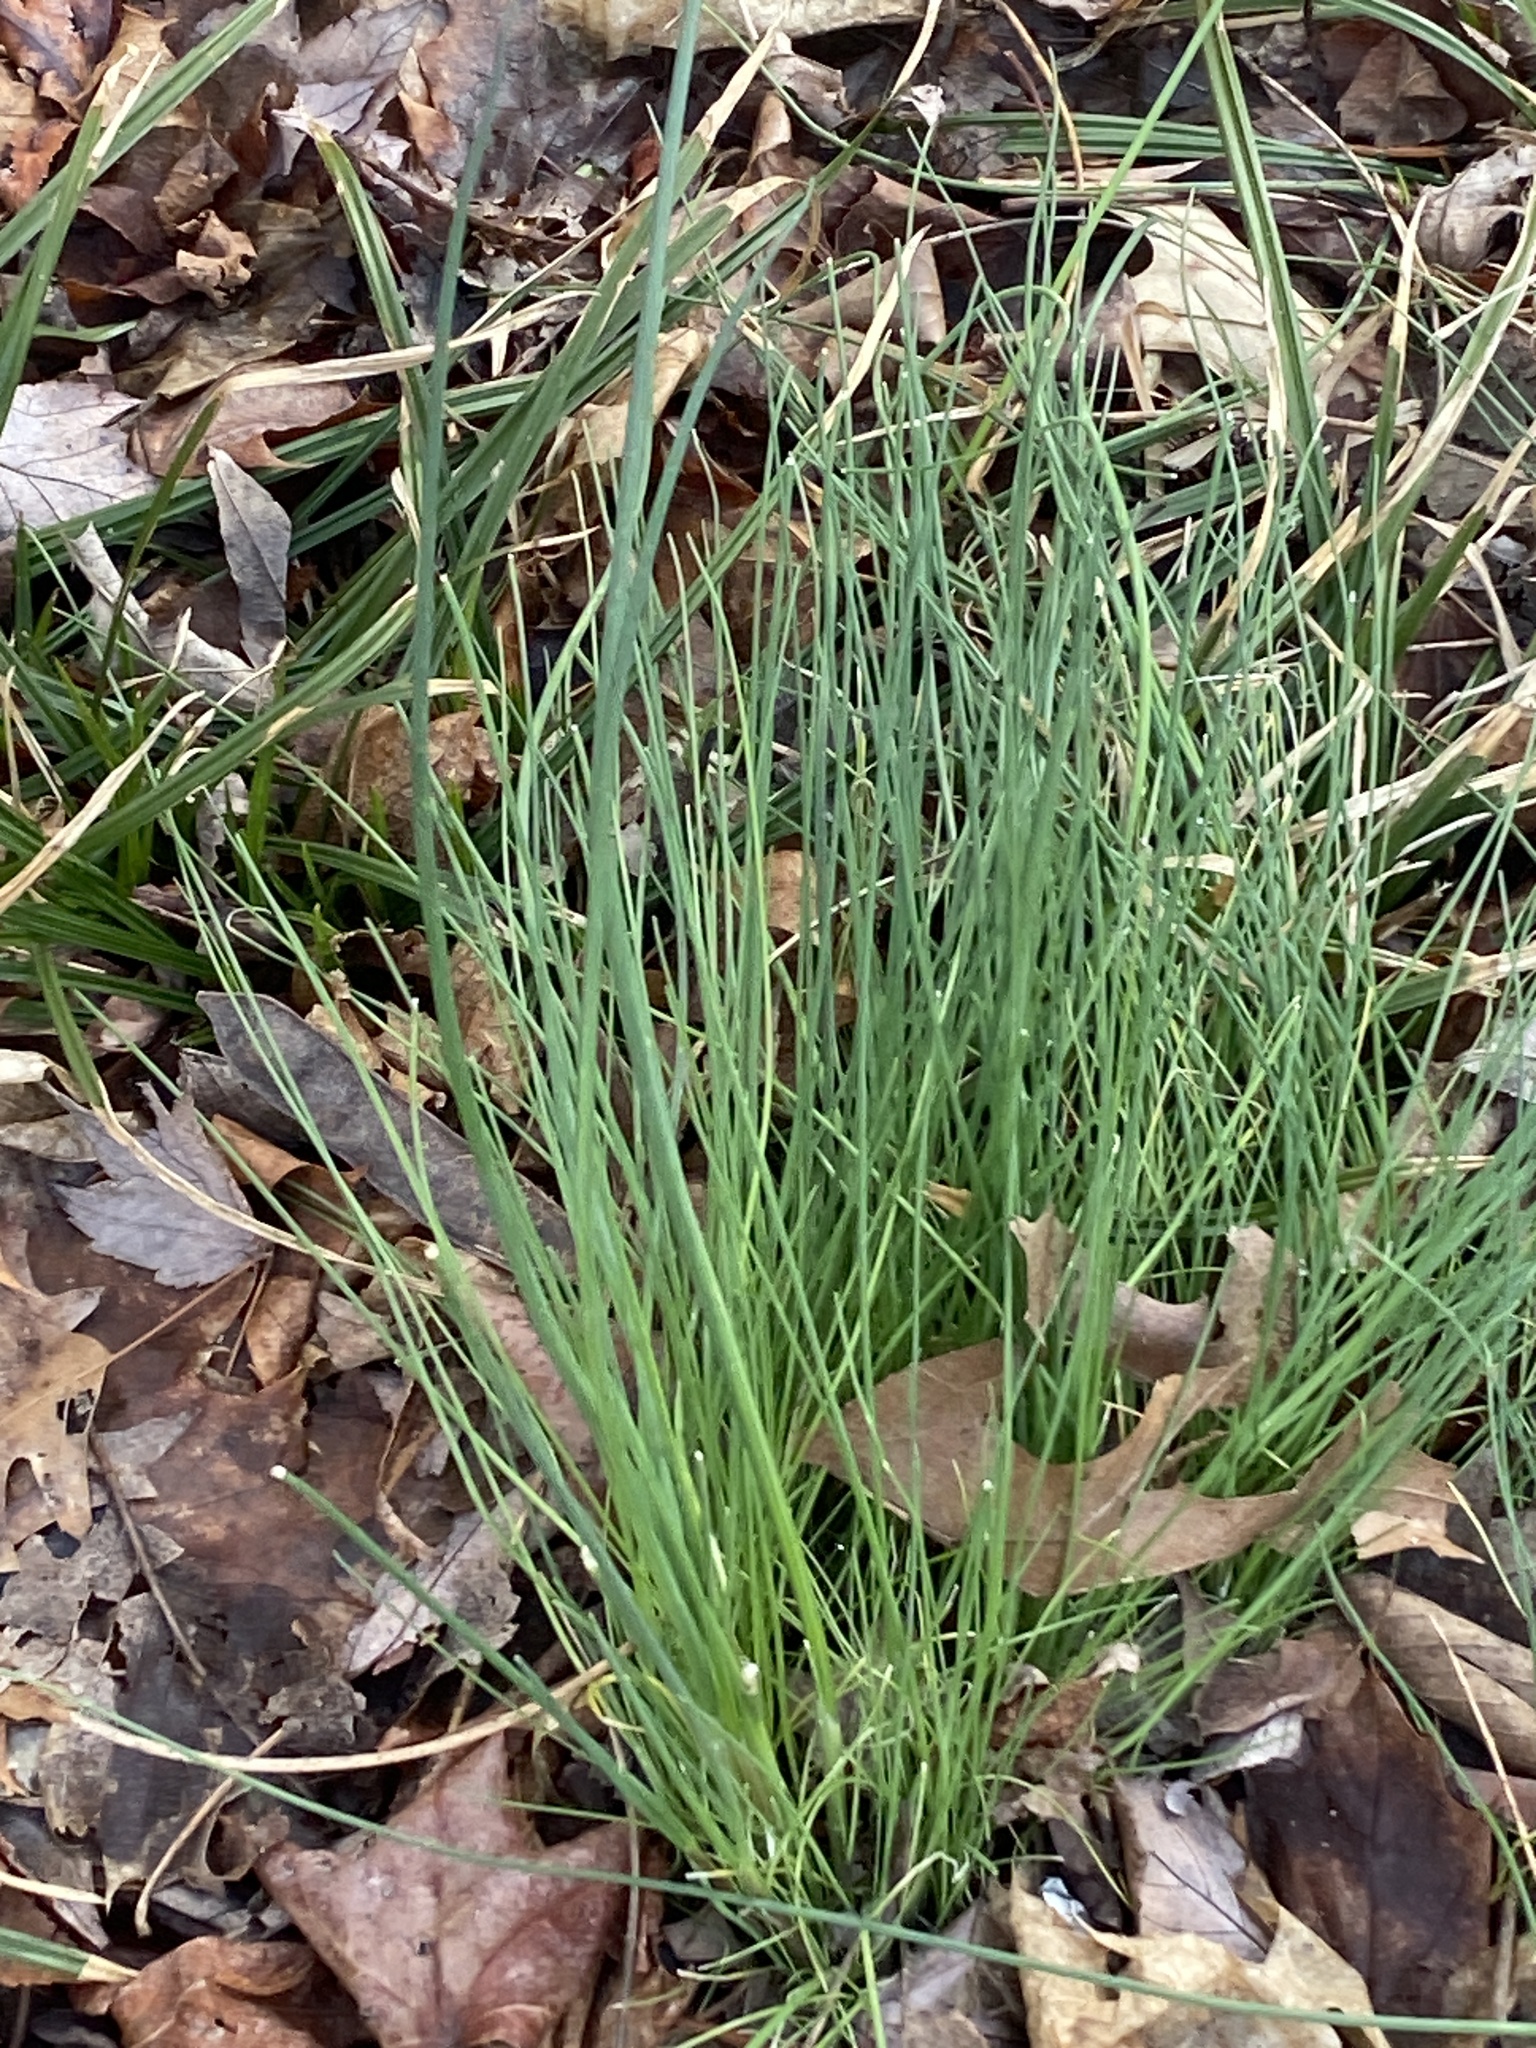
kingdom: Plantae
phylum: Tracheophyta
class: Liliopsida
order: Asparagales
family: Amaryllidaceae
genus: Allium
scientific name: Allium vineale
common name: Crow garlic
